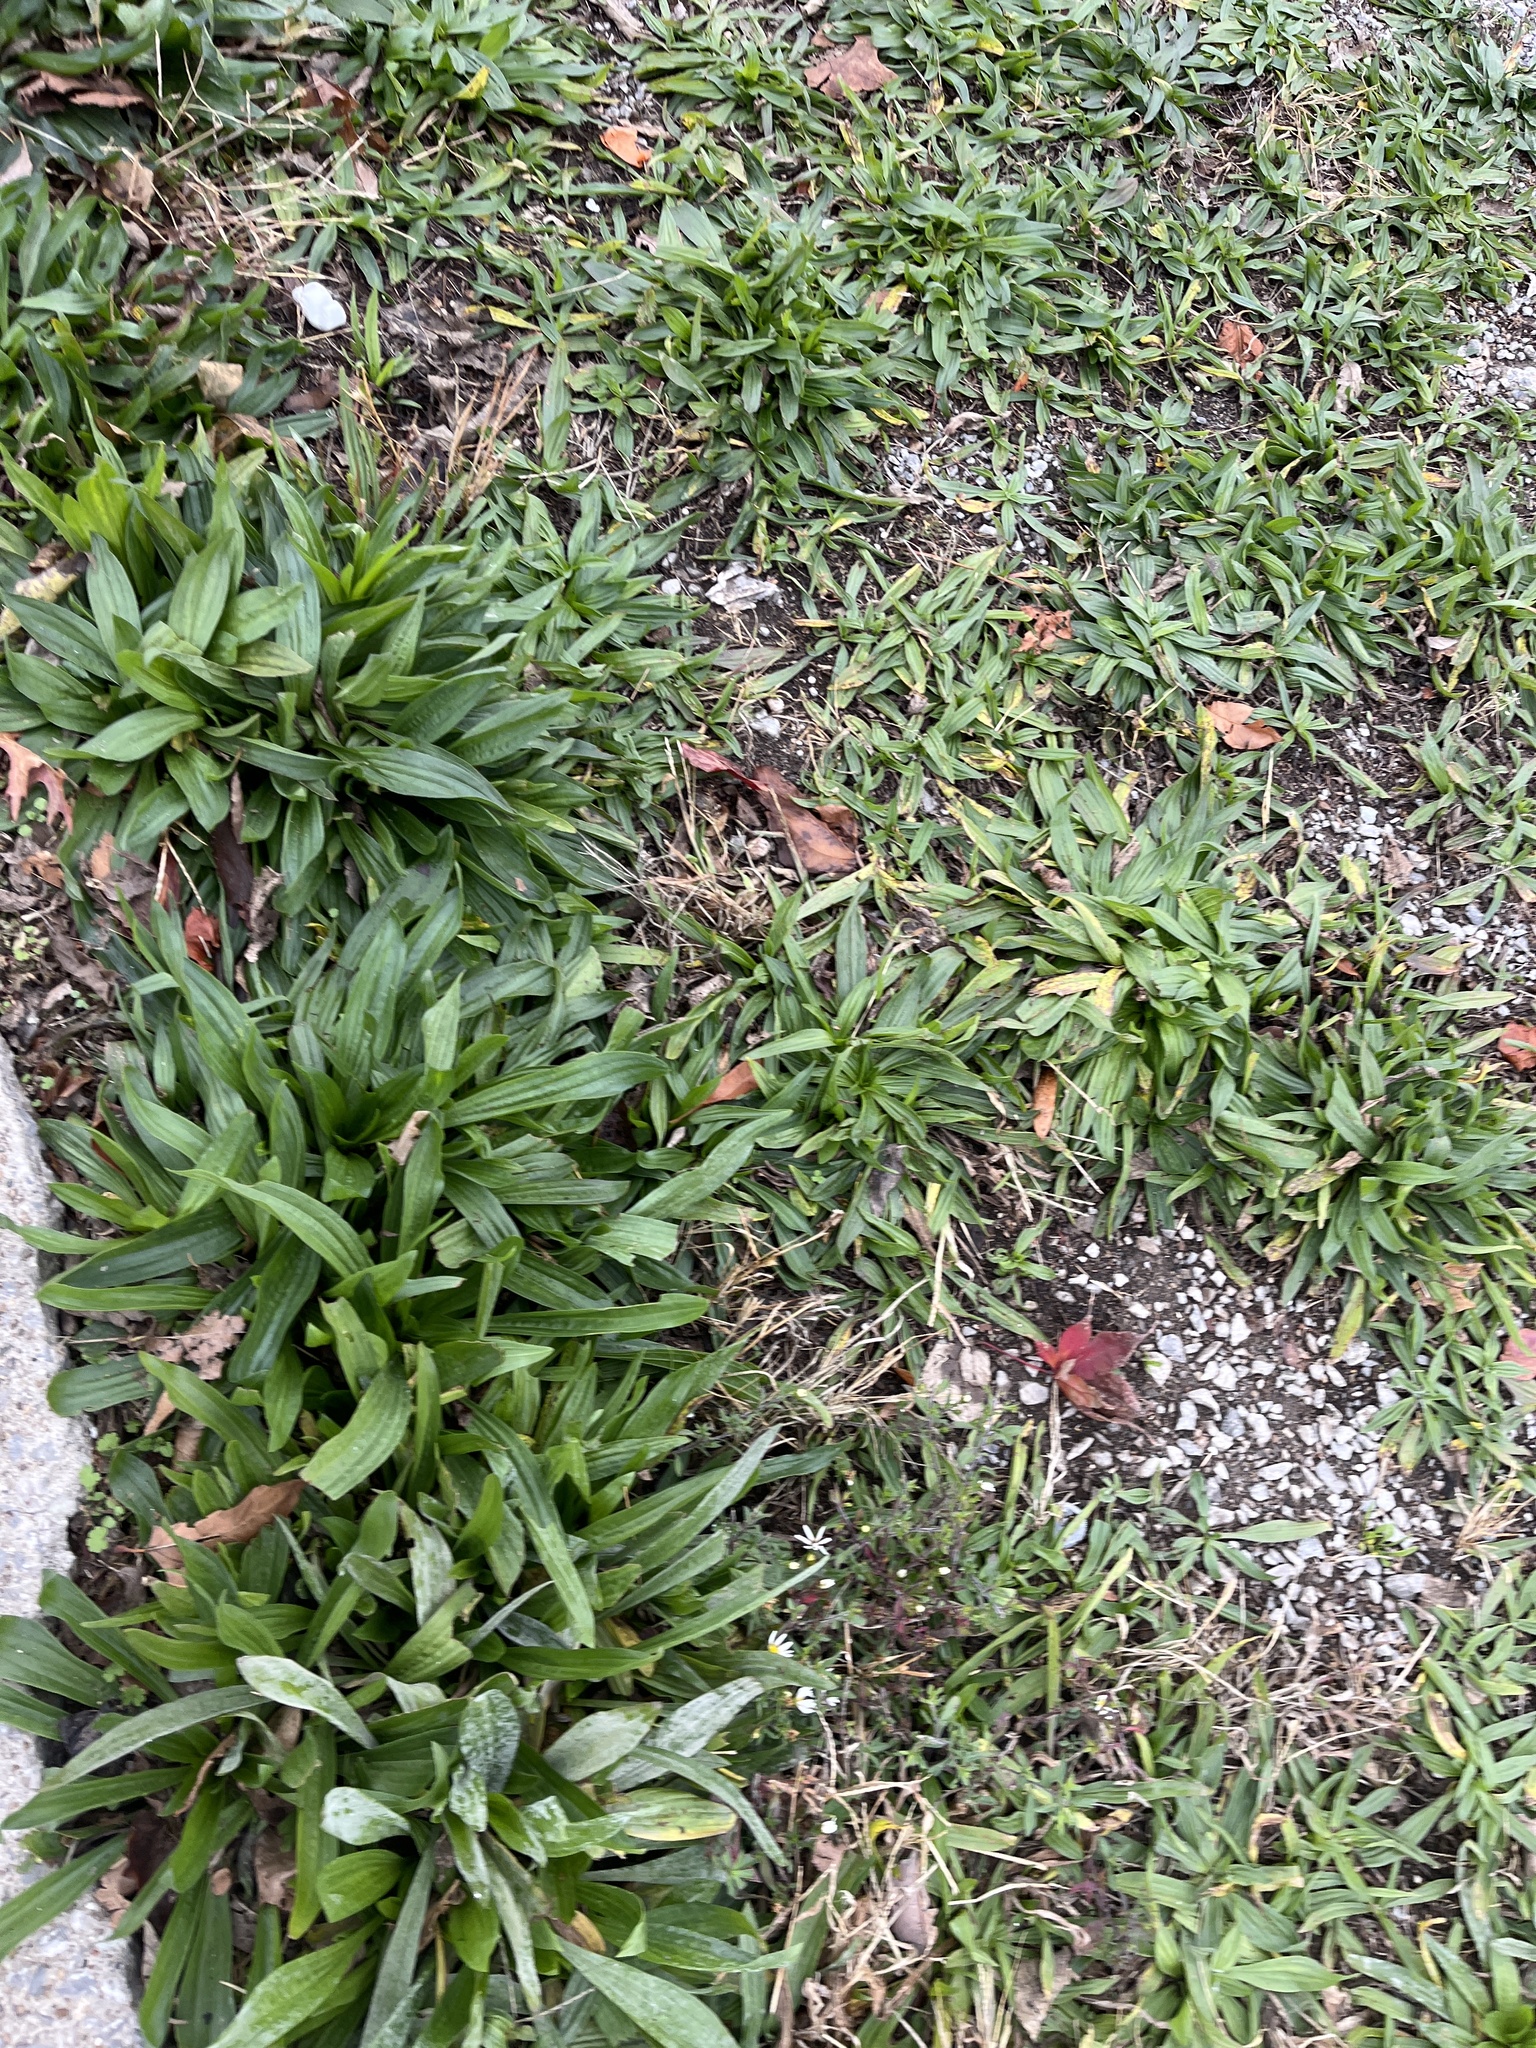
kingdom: Plantae
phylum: Tracheophyta
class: Magnoliopsida
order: Lamiales
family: Plantaginaceae
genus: Plantago
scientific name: Plantago lanceolata
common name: Ribwort plantain
